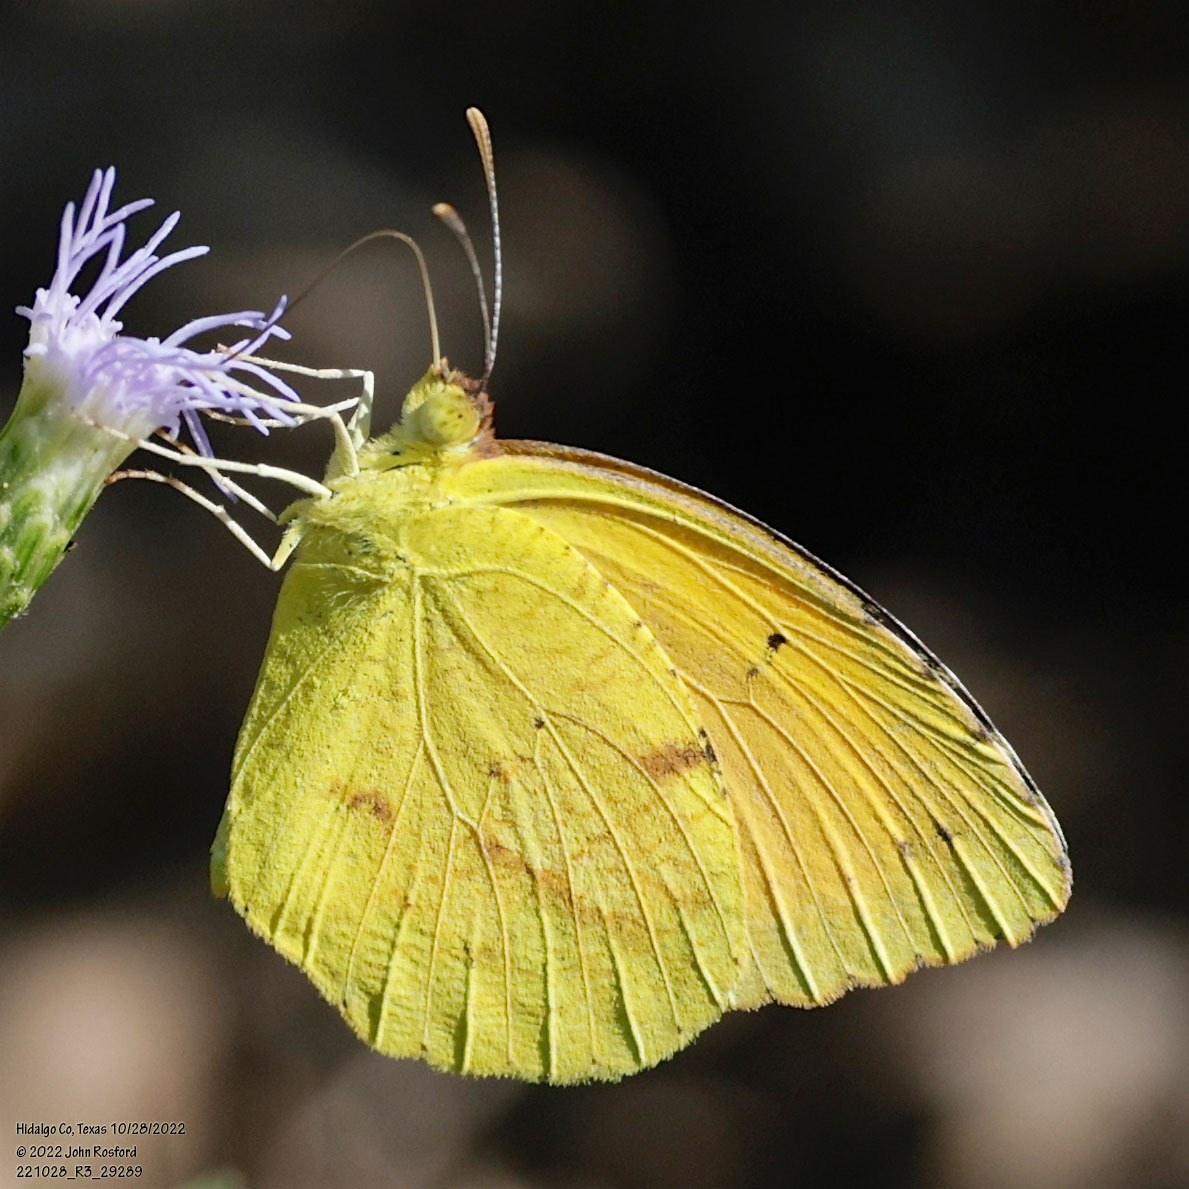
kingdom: Animalia
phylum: Arthropoda
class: Insecta
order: Lepidoptera
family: Pieridae
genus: Abaeis
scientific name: Abaeis nicippe
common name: Sleepy orange
